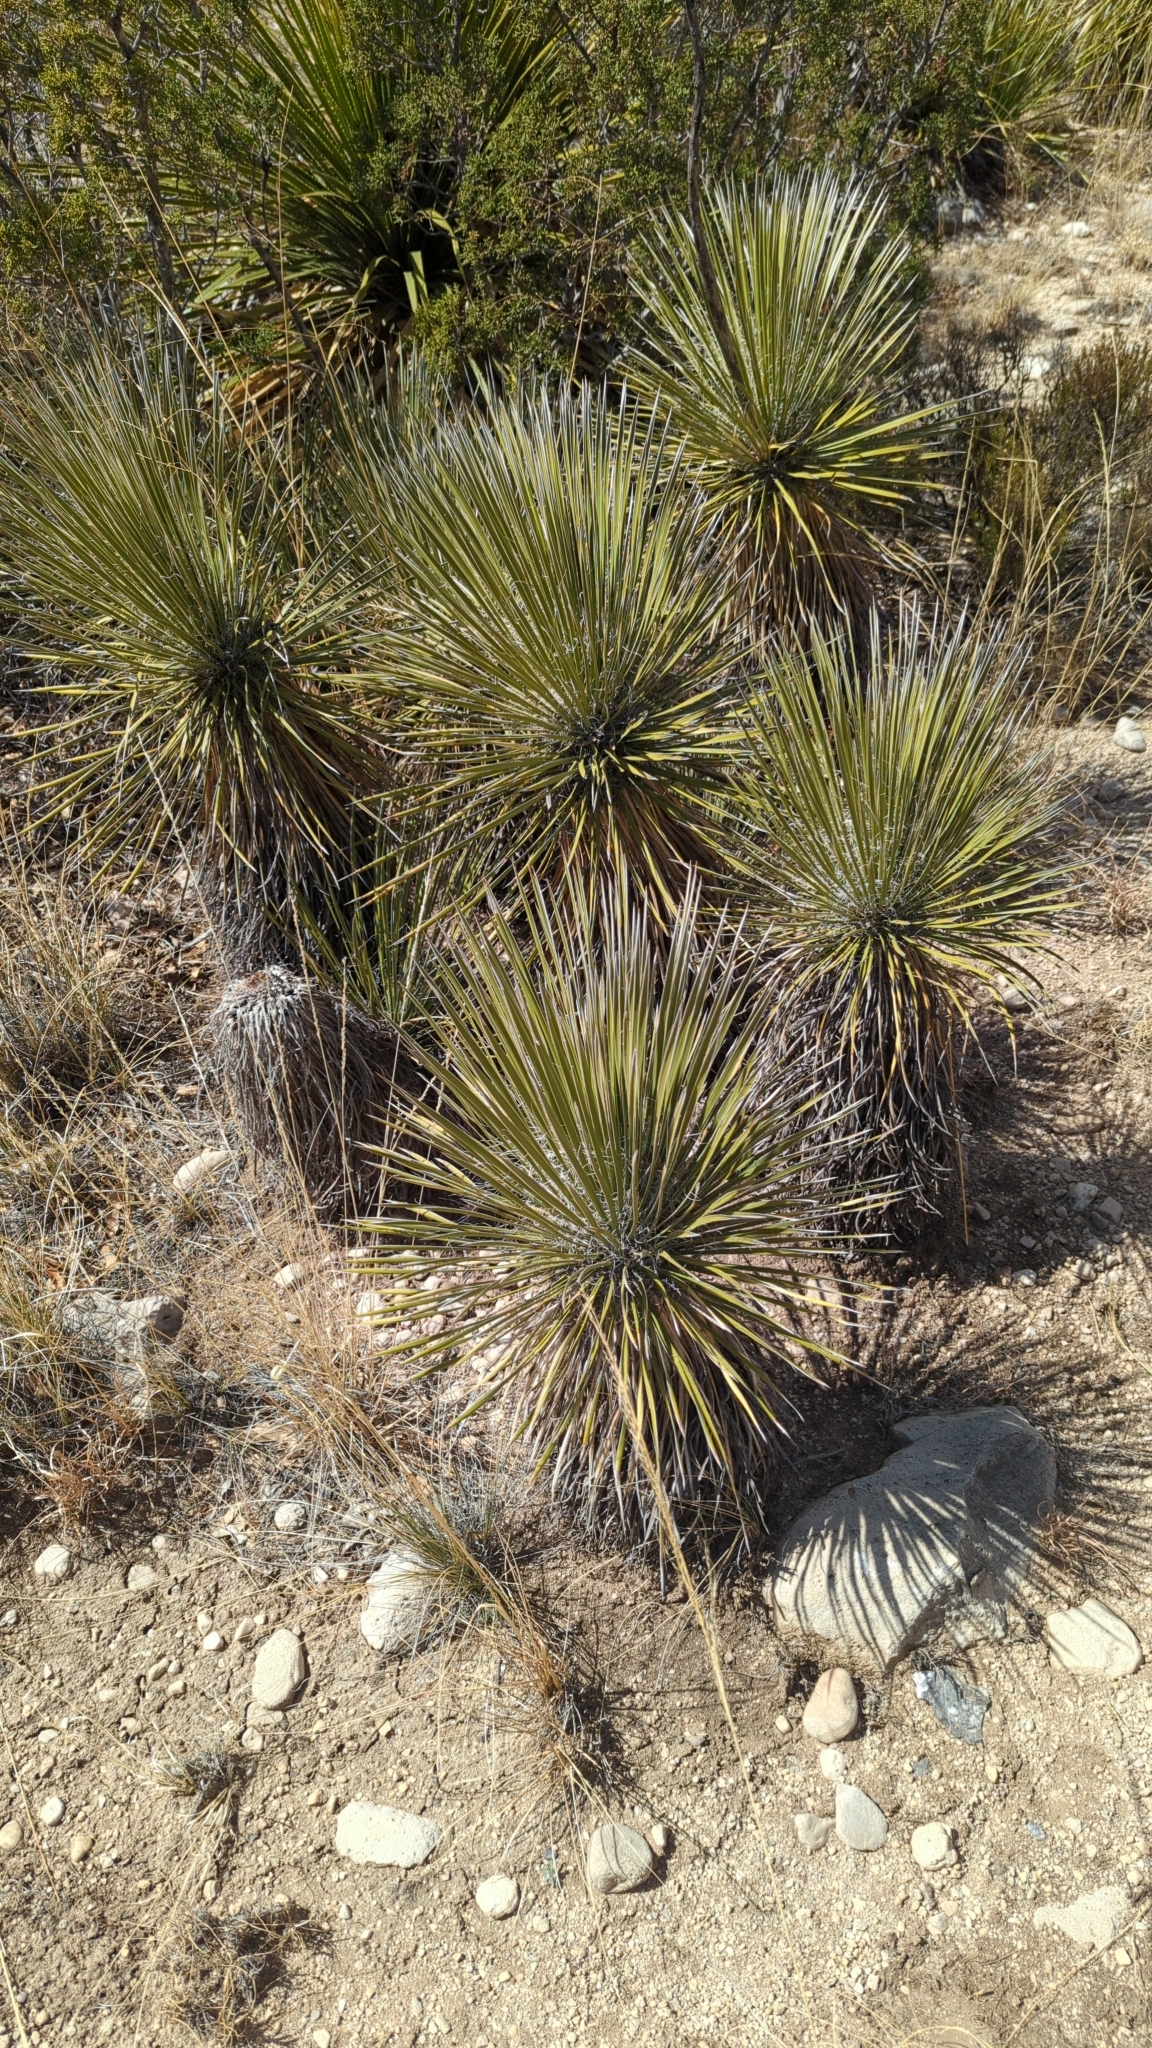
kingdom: Plantae
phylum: Tracheophyta
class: Liliopsida
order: Asparagales
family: Asparagaceae
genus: Yucca
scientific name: Yucca elata
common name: Palmella
